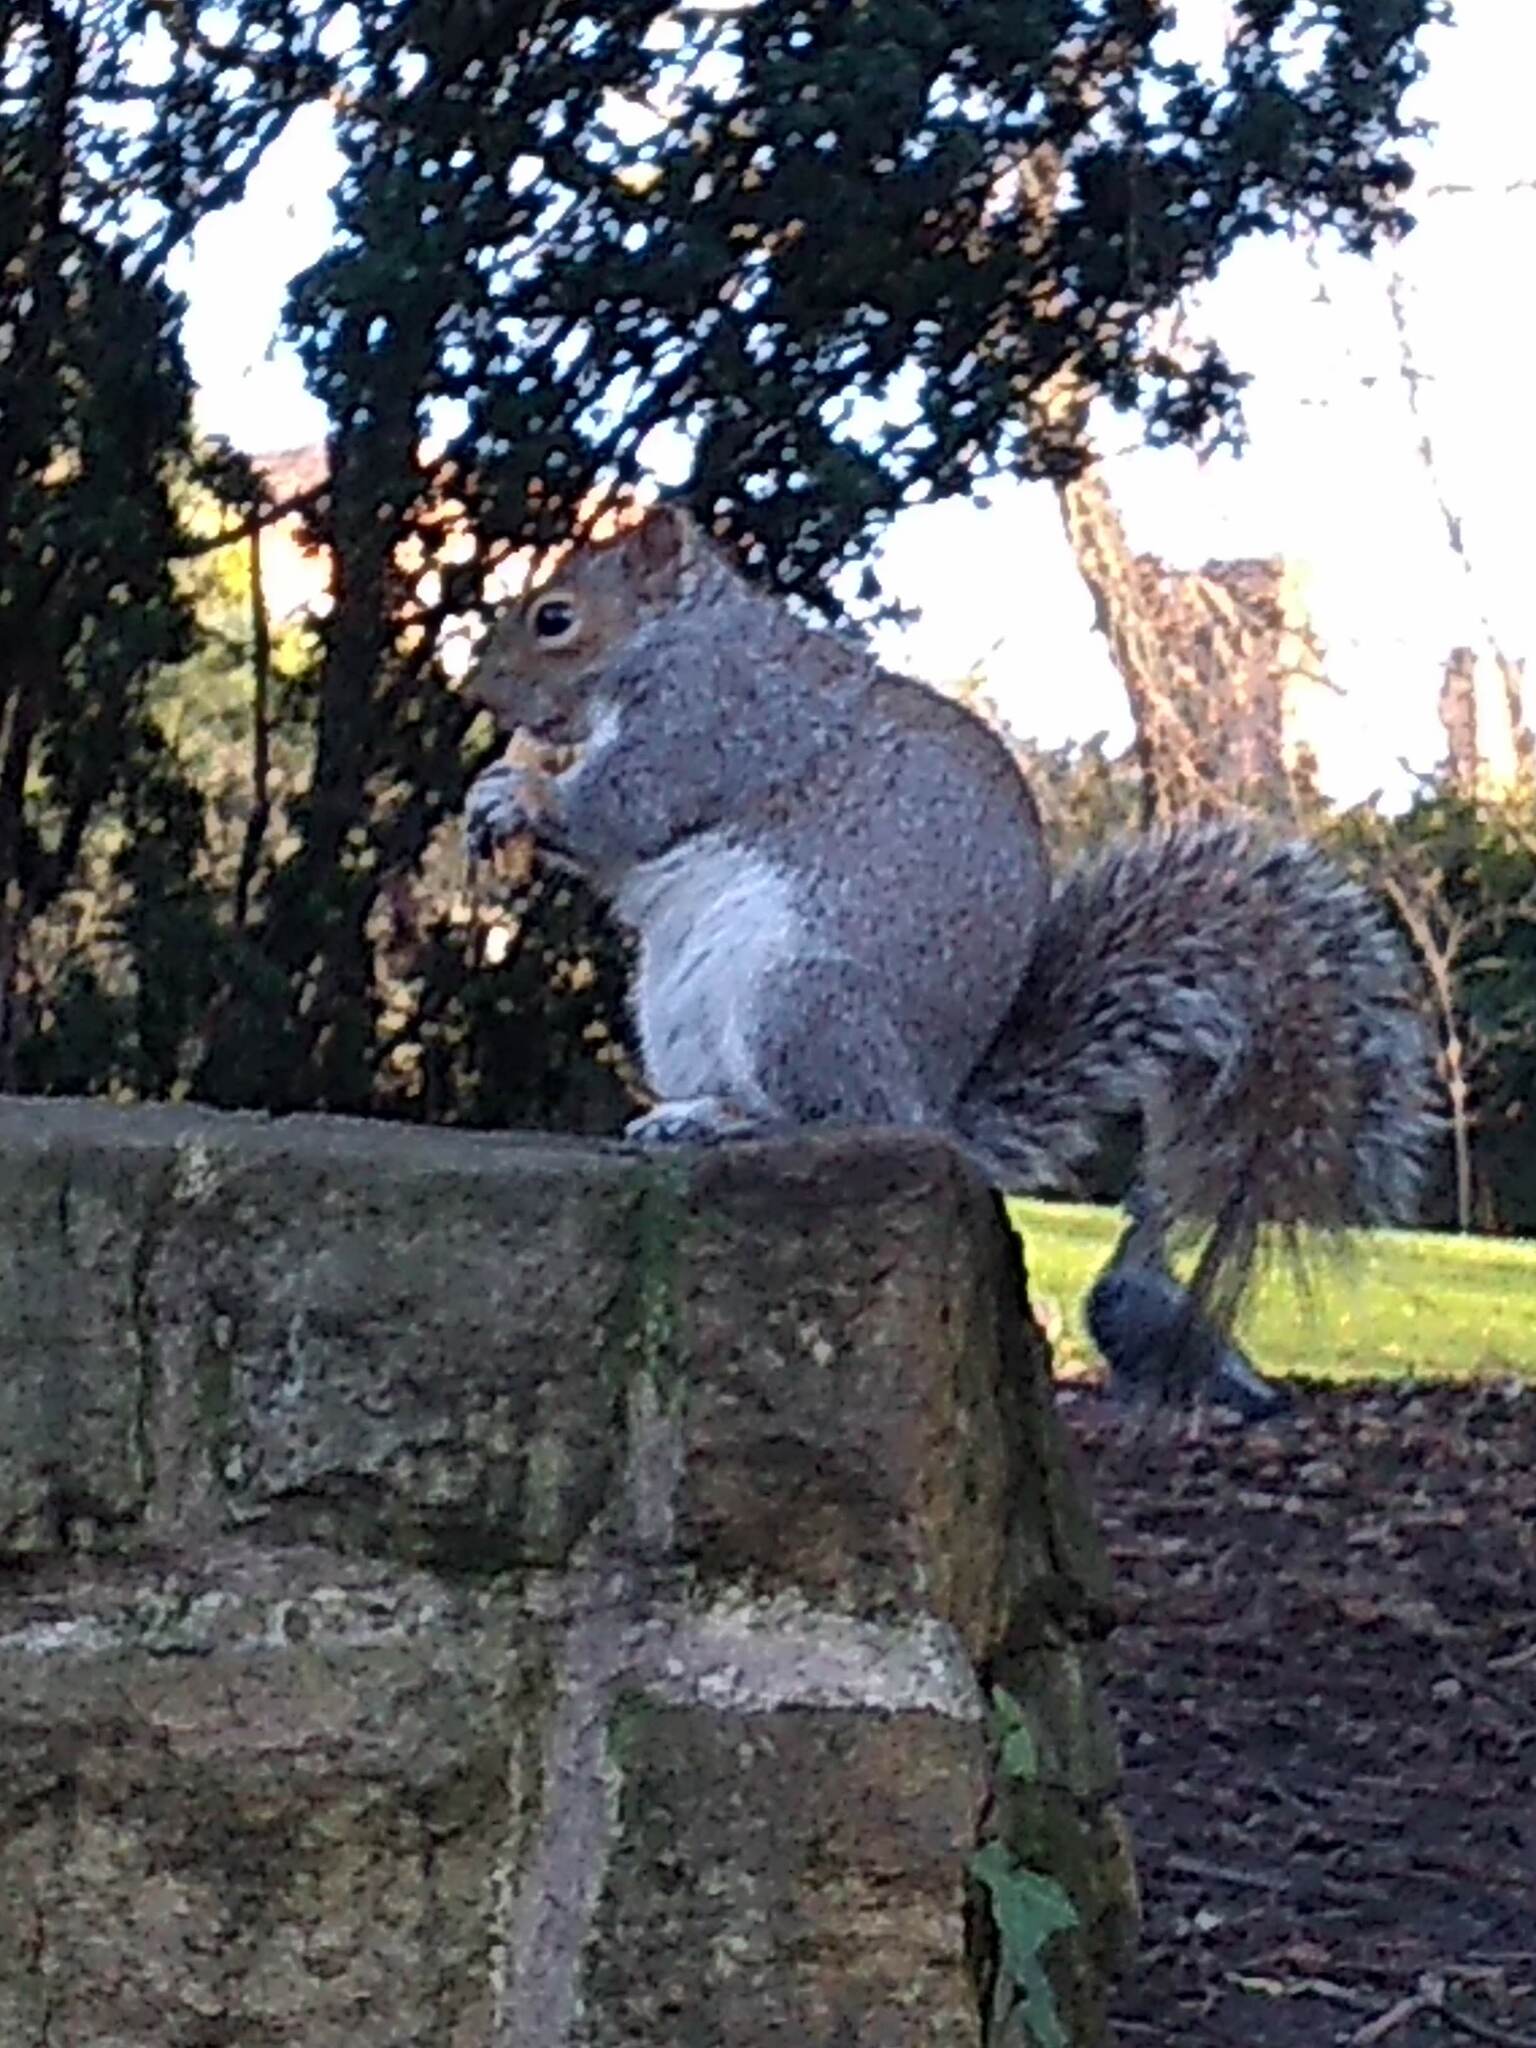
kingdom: Animalia
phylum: Chordata
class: Mammalia
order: Rodentia
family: Sciuridae
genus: Sciurus
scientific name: Sciurus carolinensis
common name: Eastern gray squirrel
